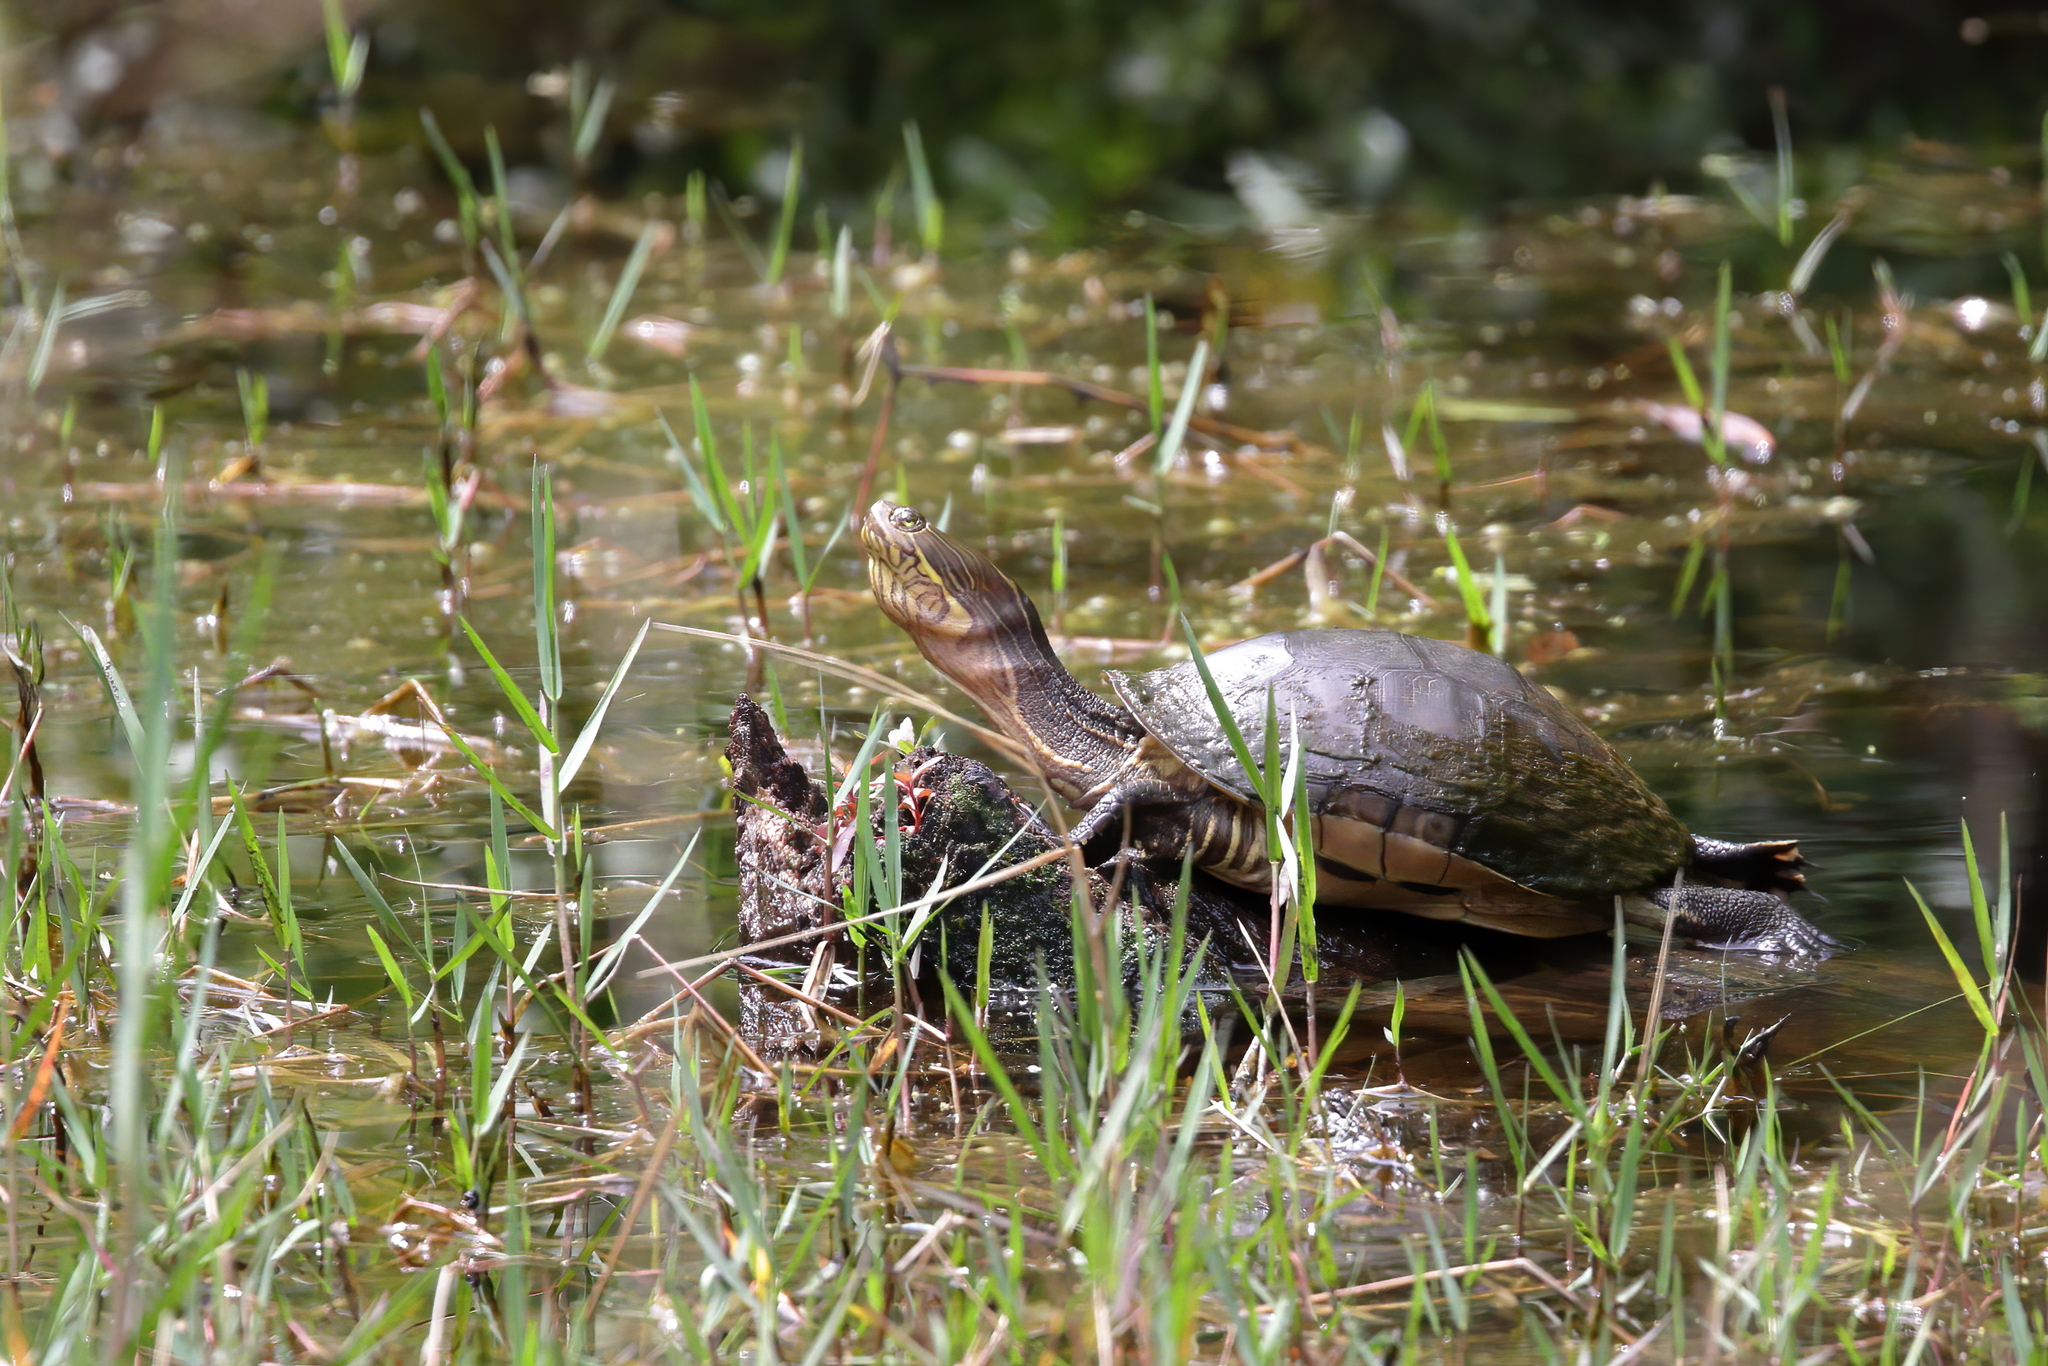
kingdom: Animalia
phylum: Chordata
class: Testudines
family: Emydidae
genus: Deirochelys
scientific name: Deirochelys reticularia
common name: Chicken turtle
